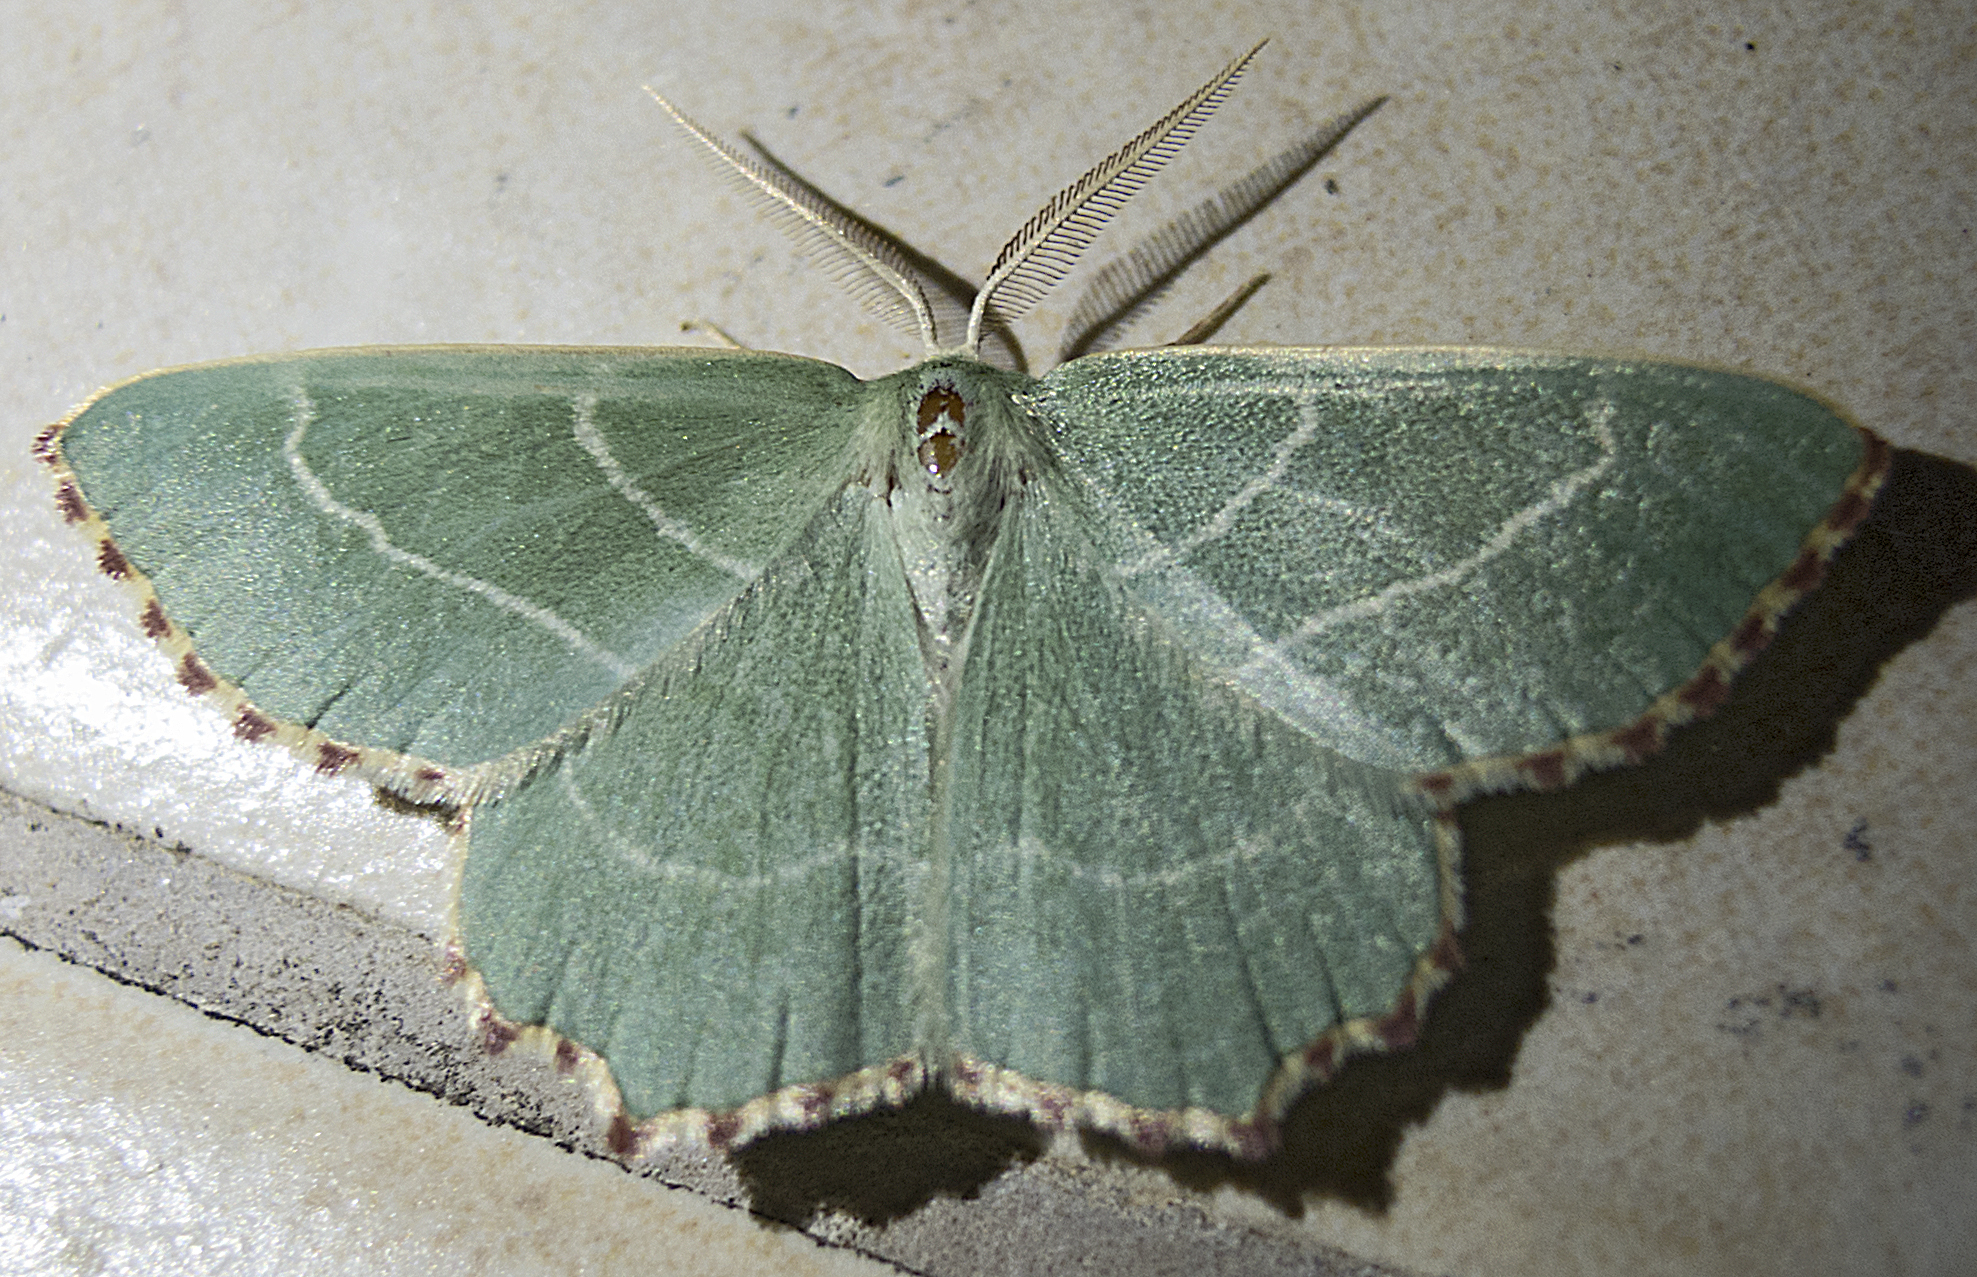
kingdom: Animalia
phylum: Arthropoda
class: Insecta
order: Lepidoptera
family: Geometridae
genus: Thalera
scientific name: Thalera fimbrialis
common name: Sussex emerald
